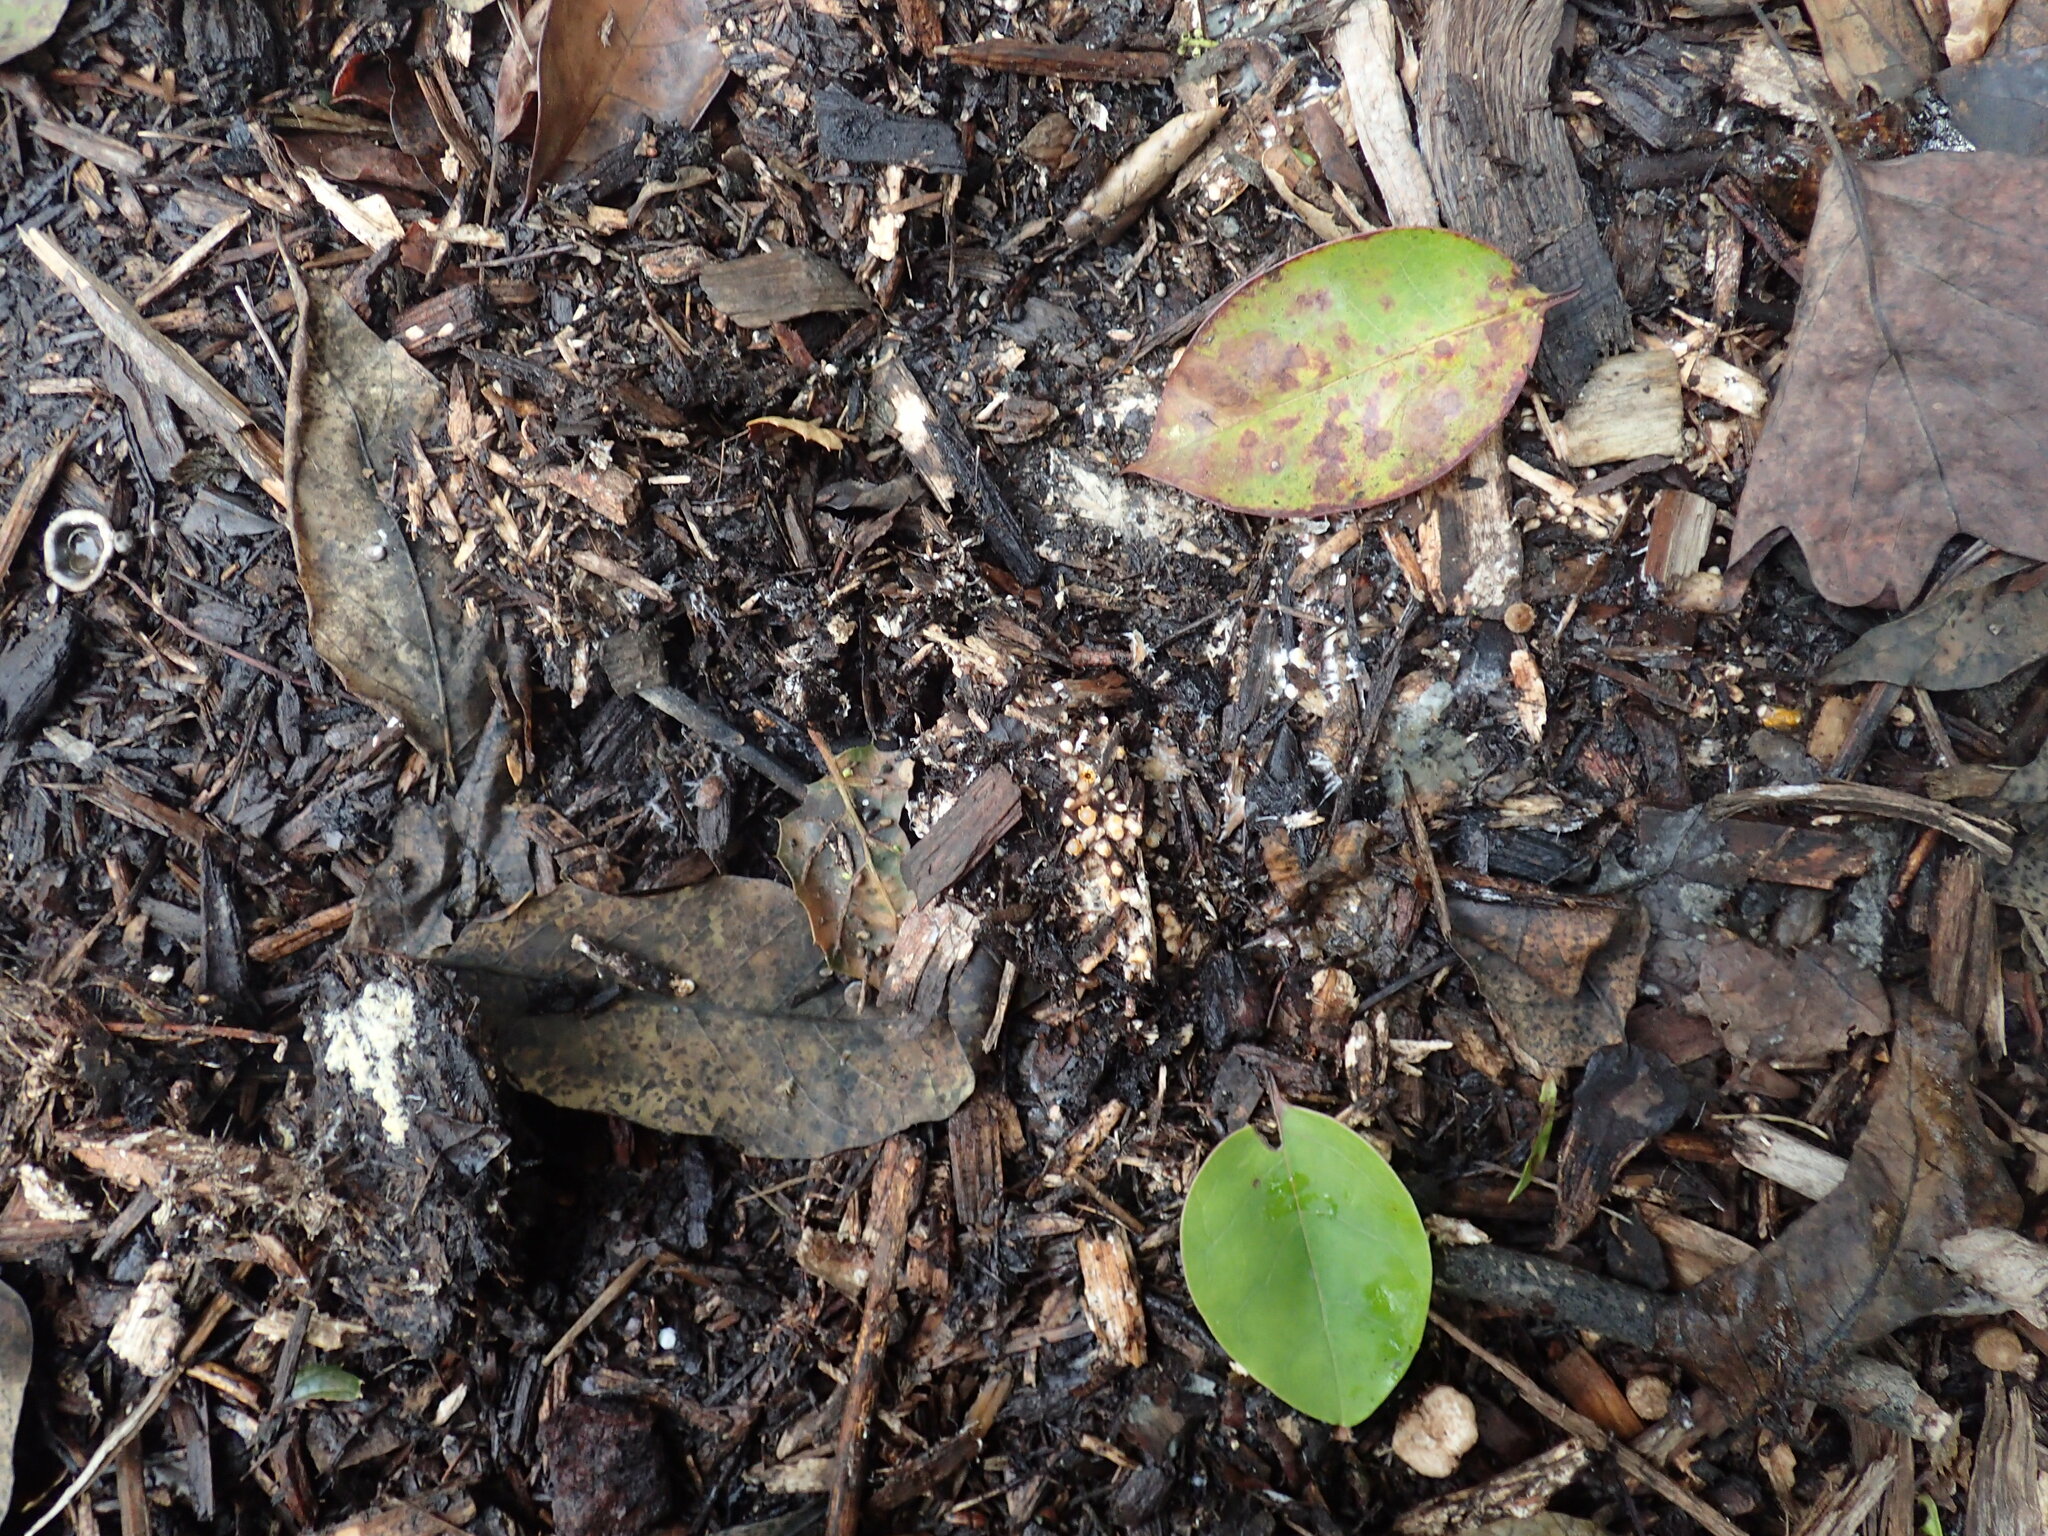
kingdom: Fungi
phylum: Basidiomycota
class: Agaricomycetes
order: Geastrales
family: Geastraceae
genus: Sphaerobolus
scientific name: Sphaerobolus stellatus
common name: Cannon fungus
